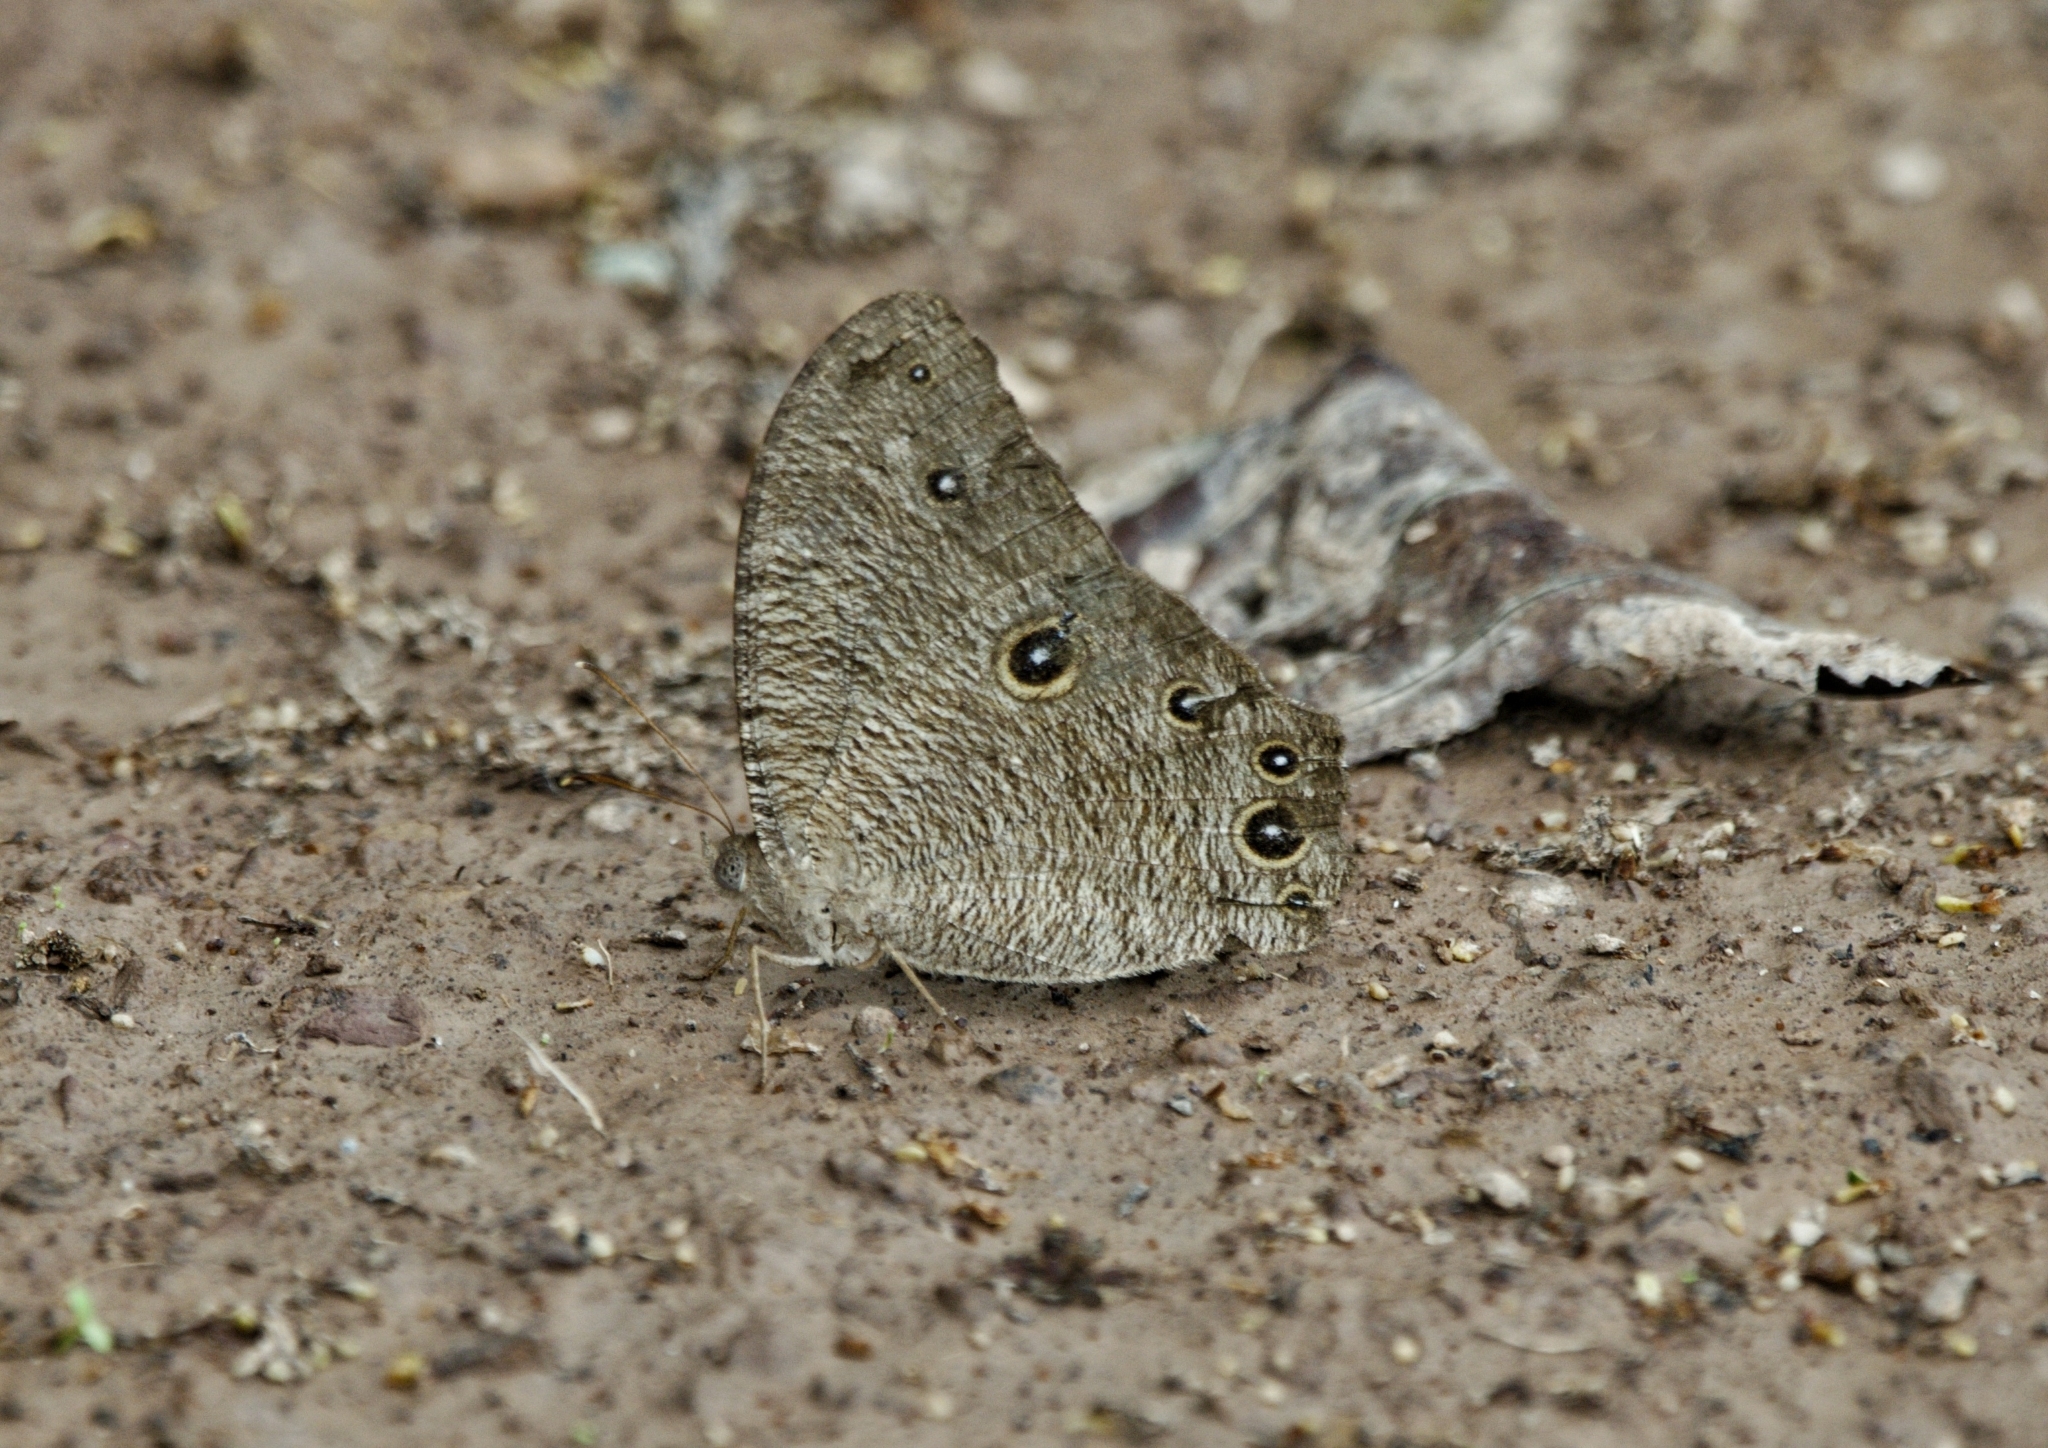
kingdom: Animalia
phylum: Arthropoda
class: Insecta
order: Lepidoptera
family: Nymphalidae
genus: Melanitis
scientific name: Melanitis leda
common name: Twilight brown
